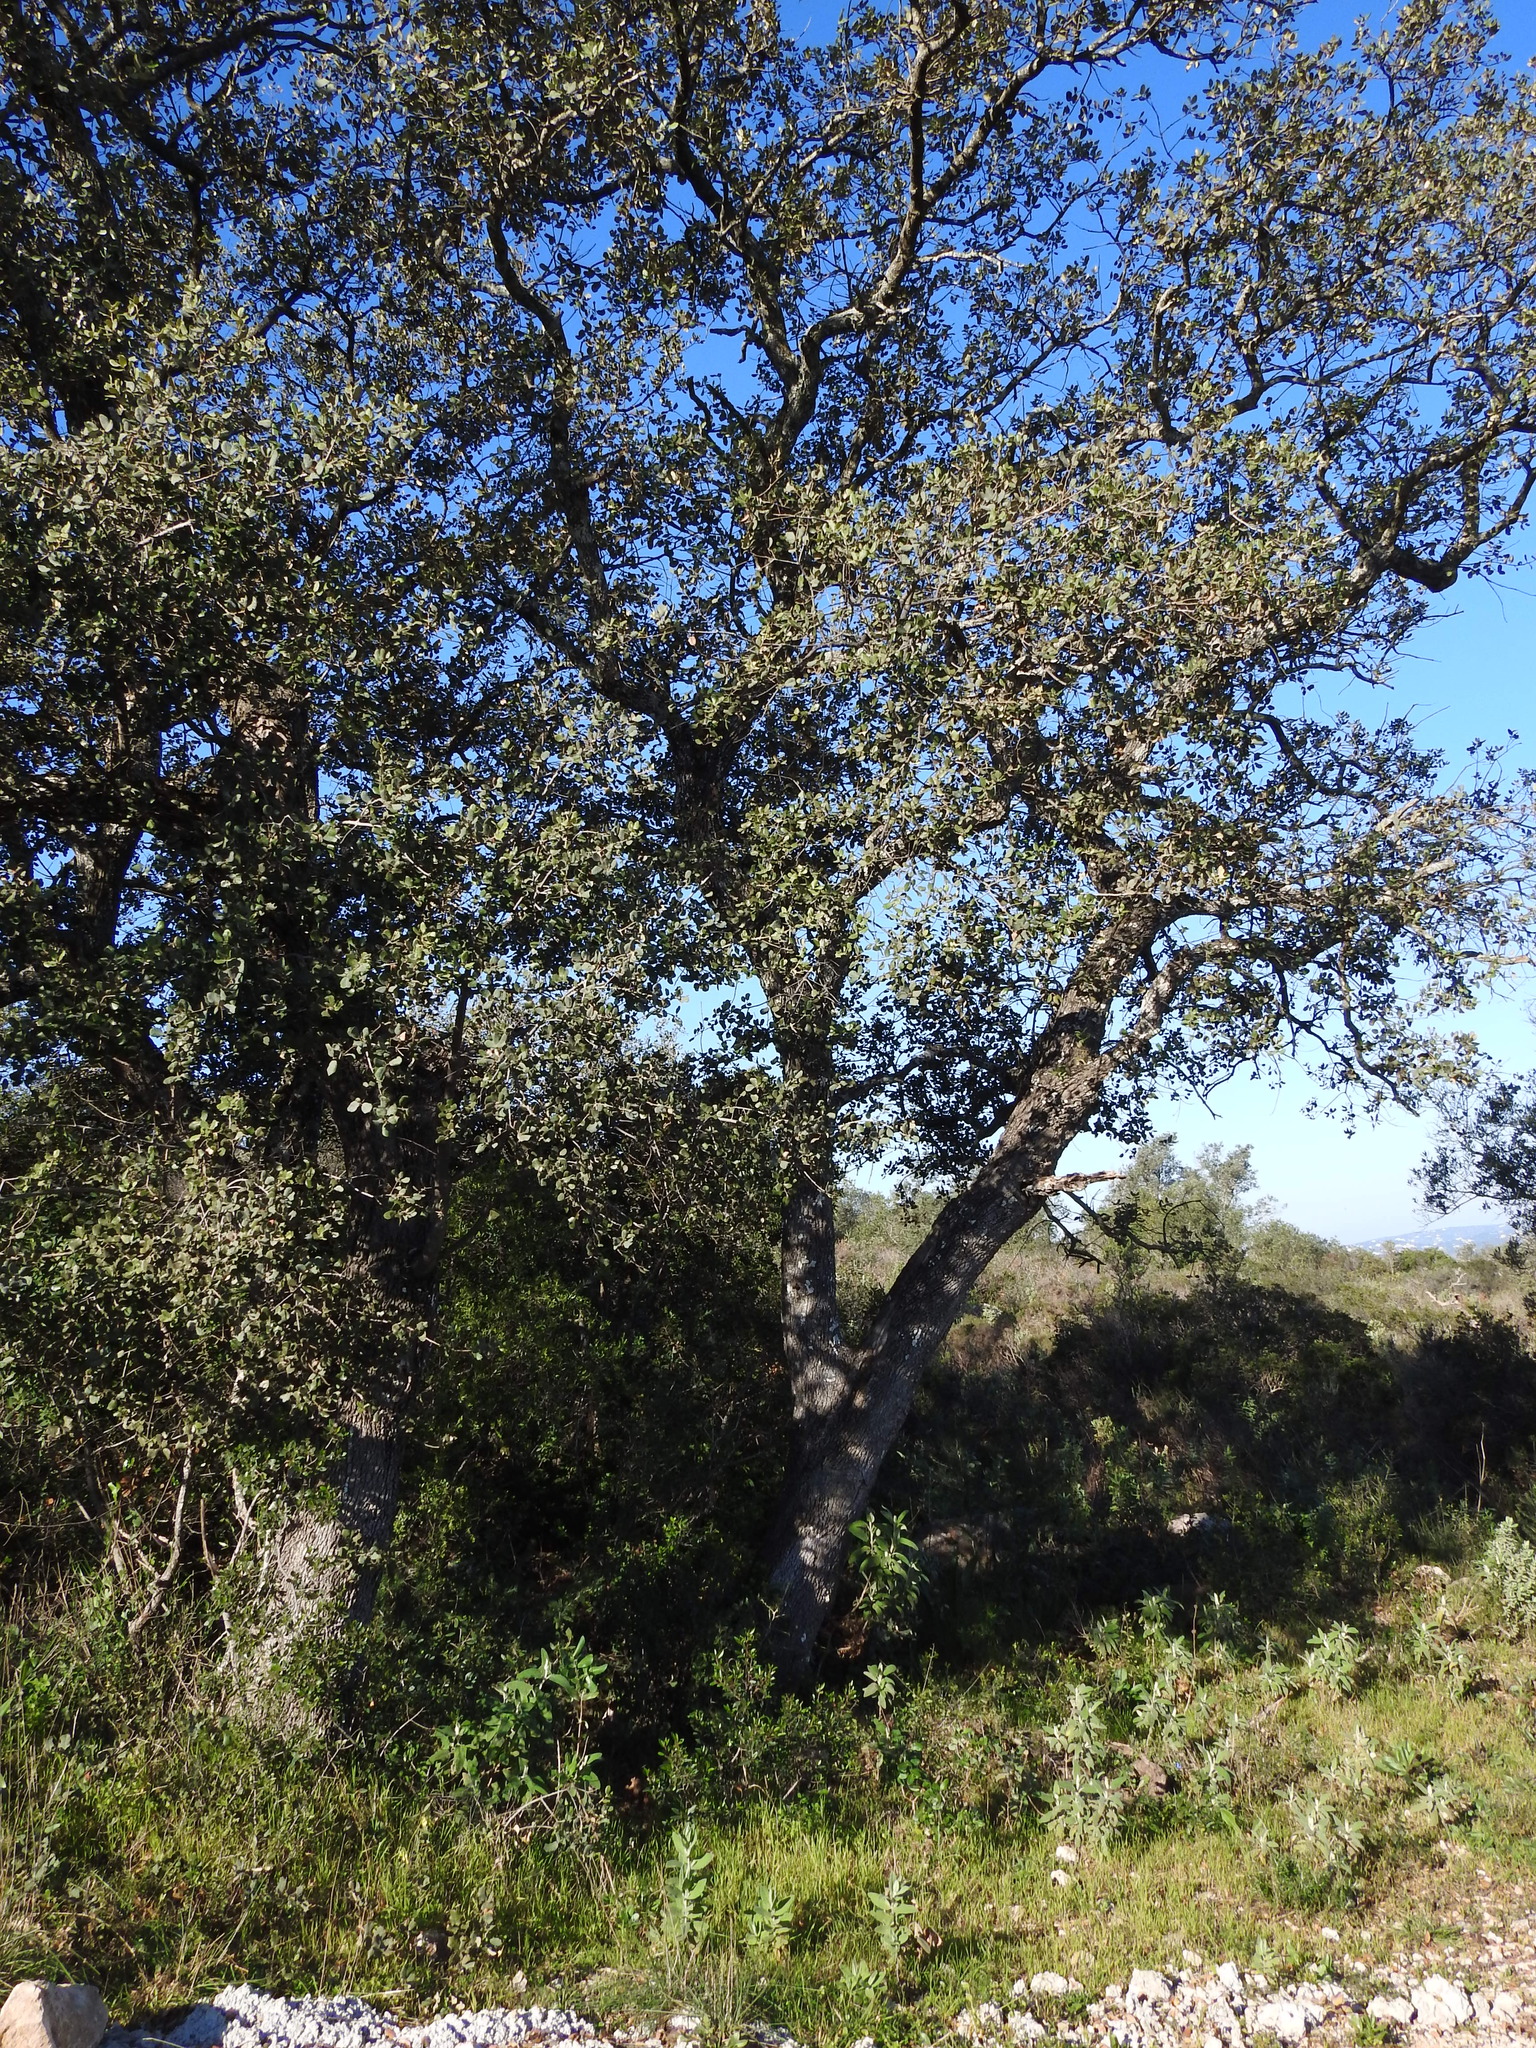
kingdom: Plantae
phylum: Tracheophyta
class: Magnoliopsida
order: Fagales
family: Fagaceae
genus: Quercus
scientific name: Quercus rotundifolia
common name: Holm oak
